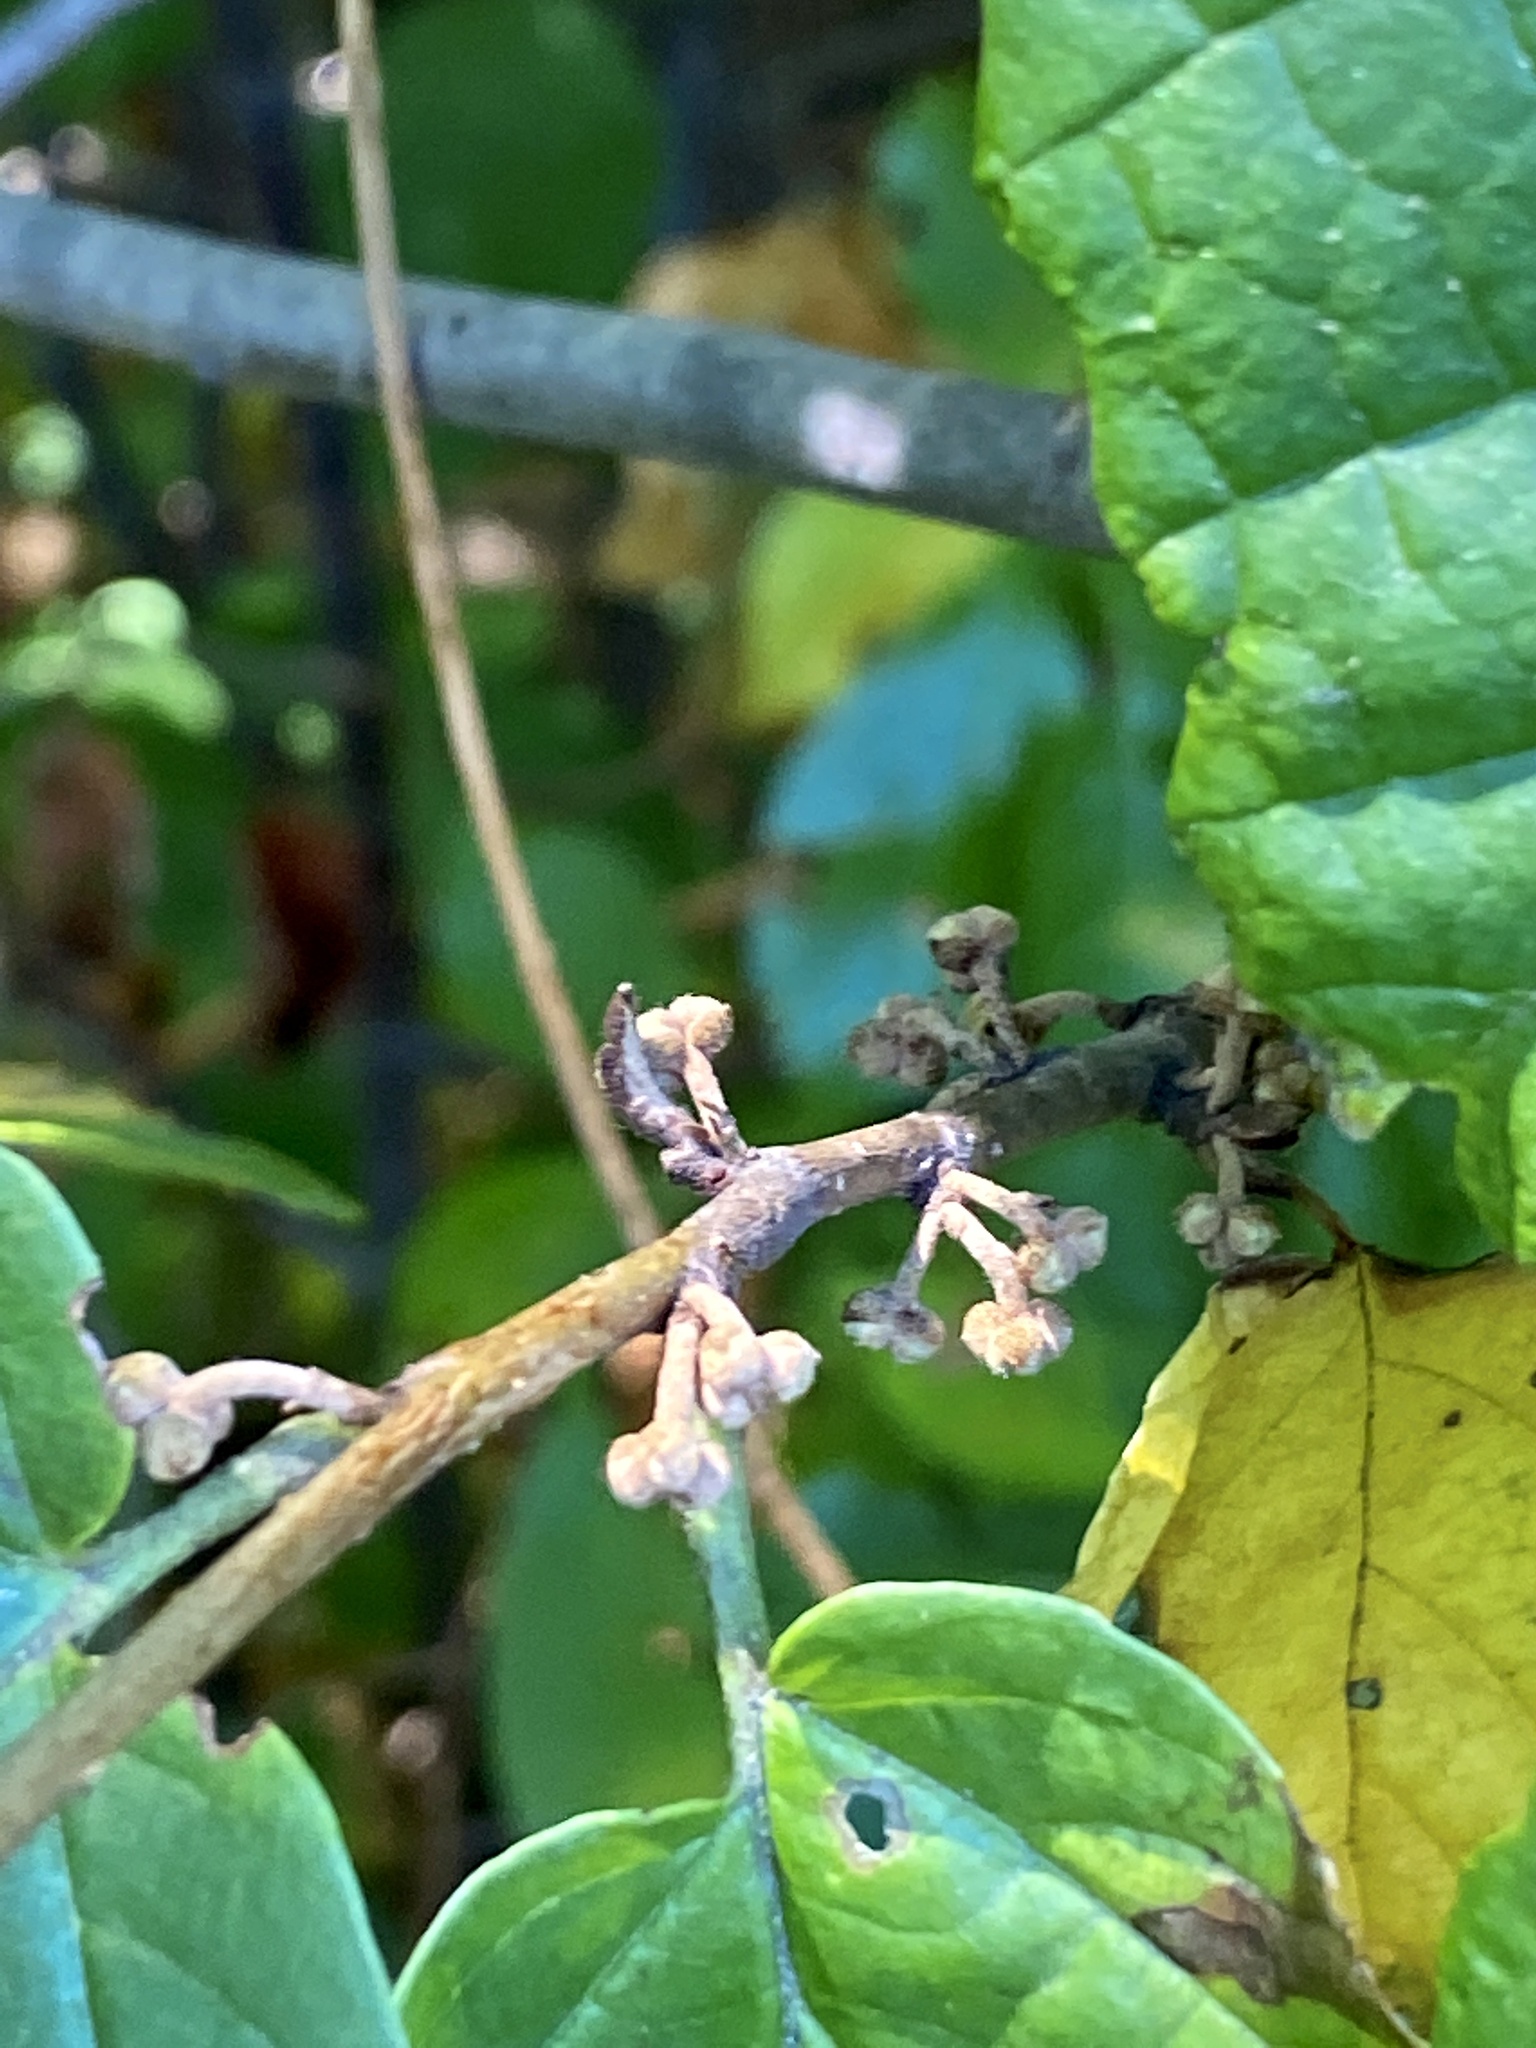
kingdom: Plantae
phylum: Tracheophyta
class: Magnoliopsida
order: Saxifragales
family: Hamamelidaceae
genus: Hamamelis
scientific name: Hamamelis virginiana
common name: Witch-hazel
